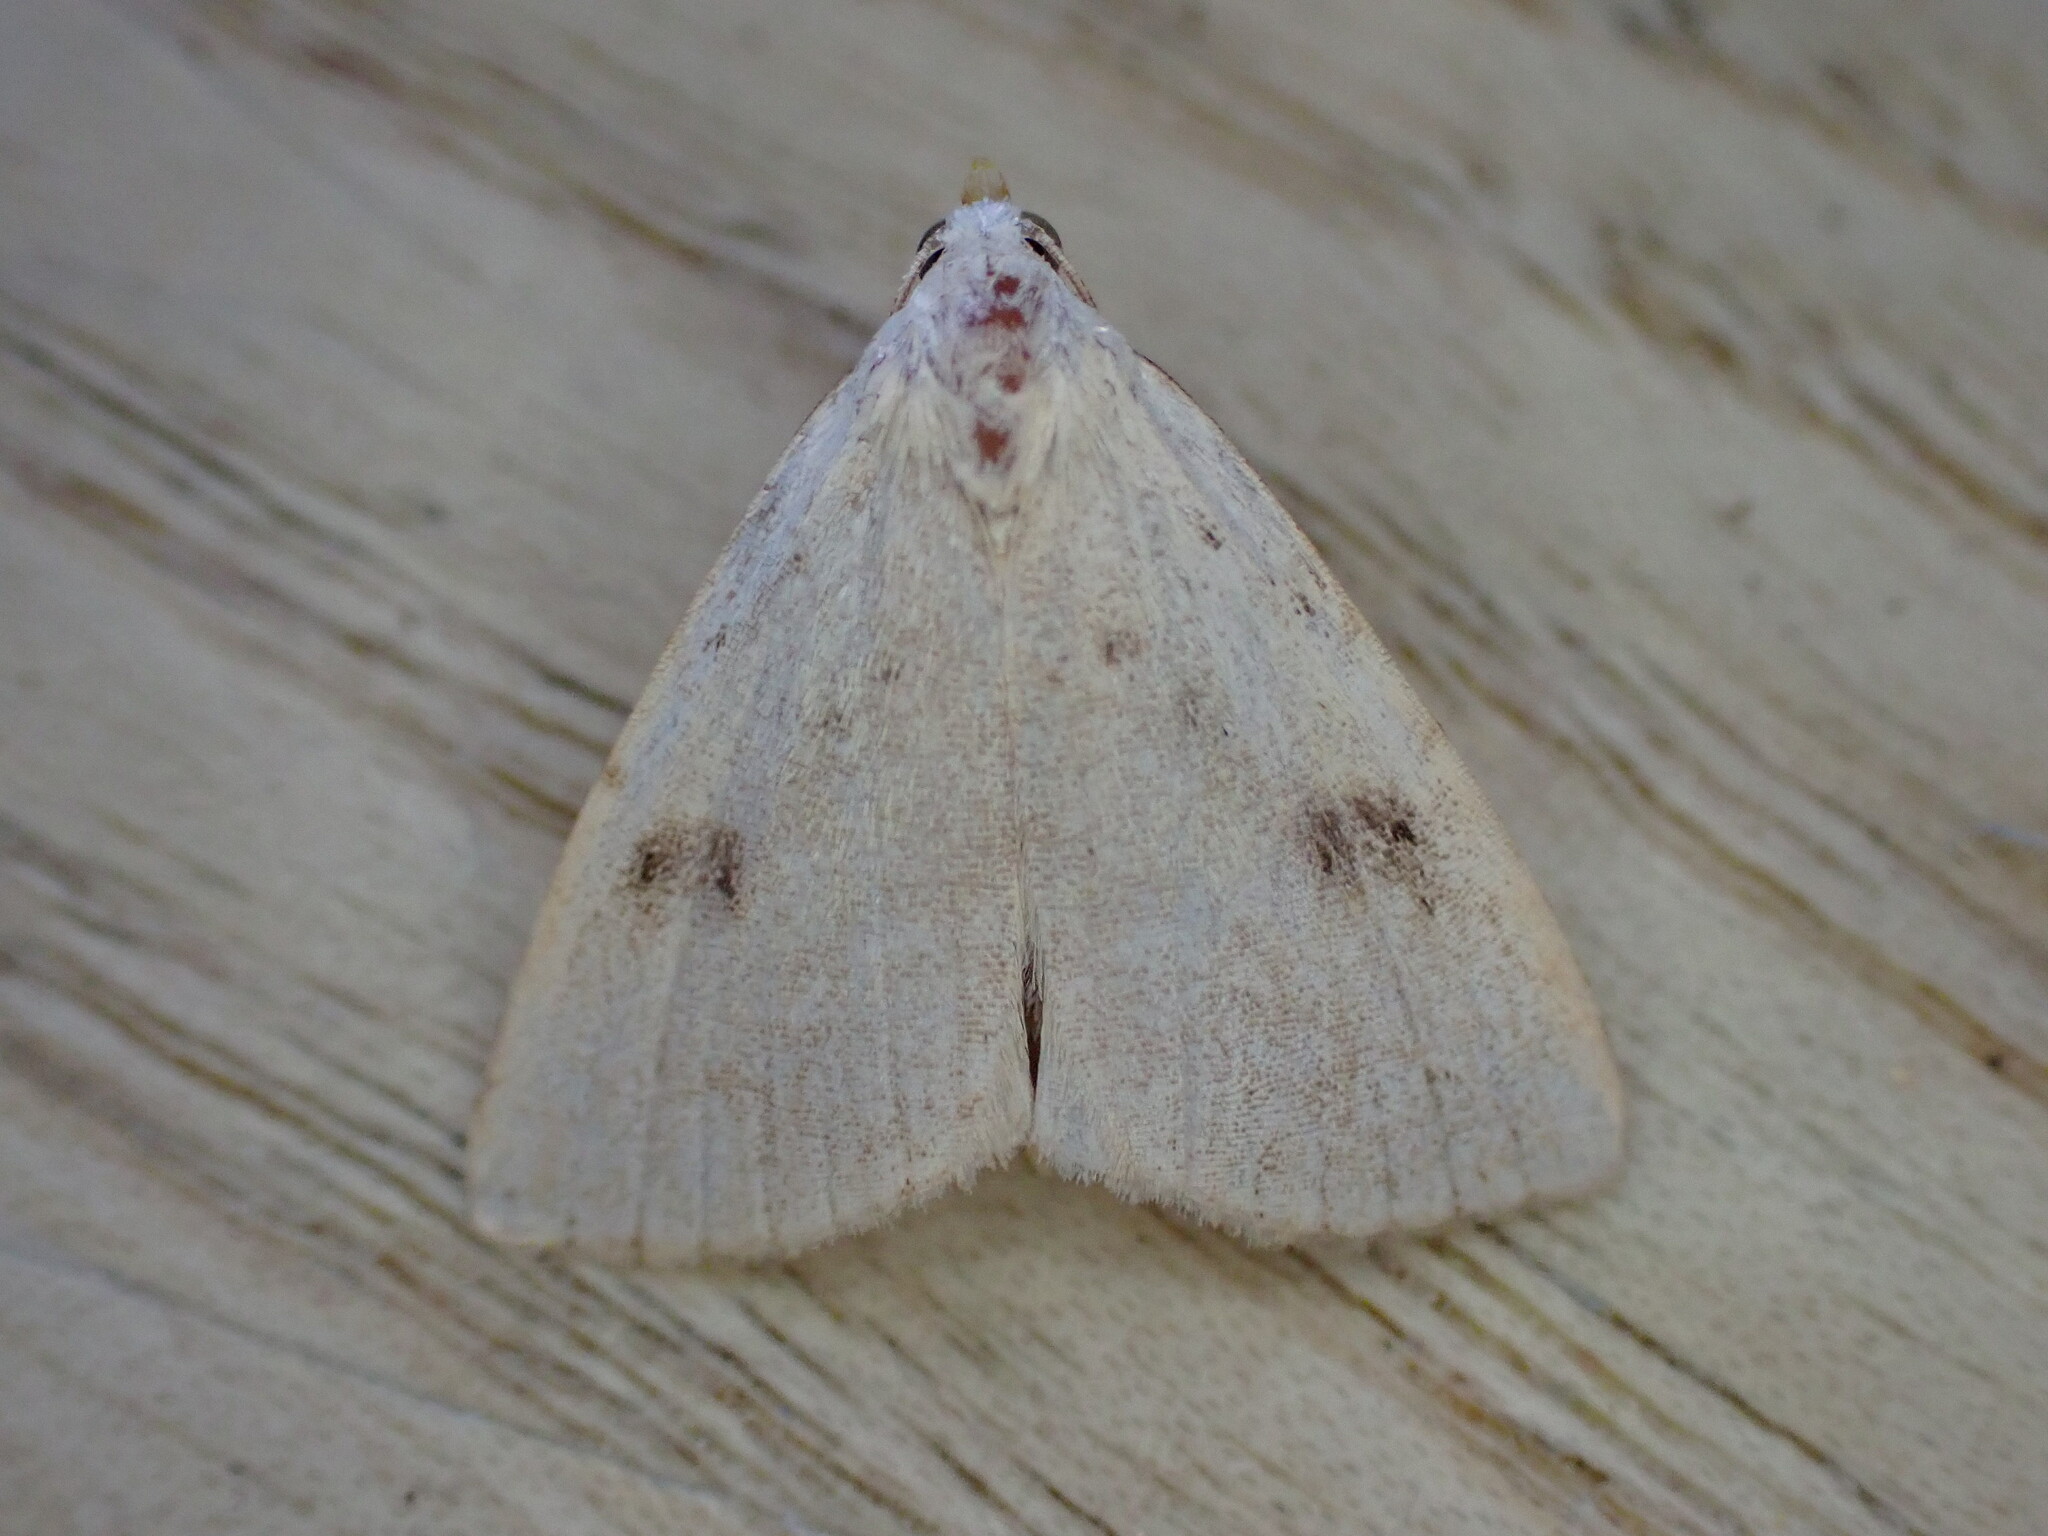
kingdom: Animalia
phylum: Arthropoda
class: Insecta
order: Lepidoptera
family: Erebidae
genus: Rivula
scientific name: Rivula sericealis
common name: Straw dot
